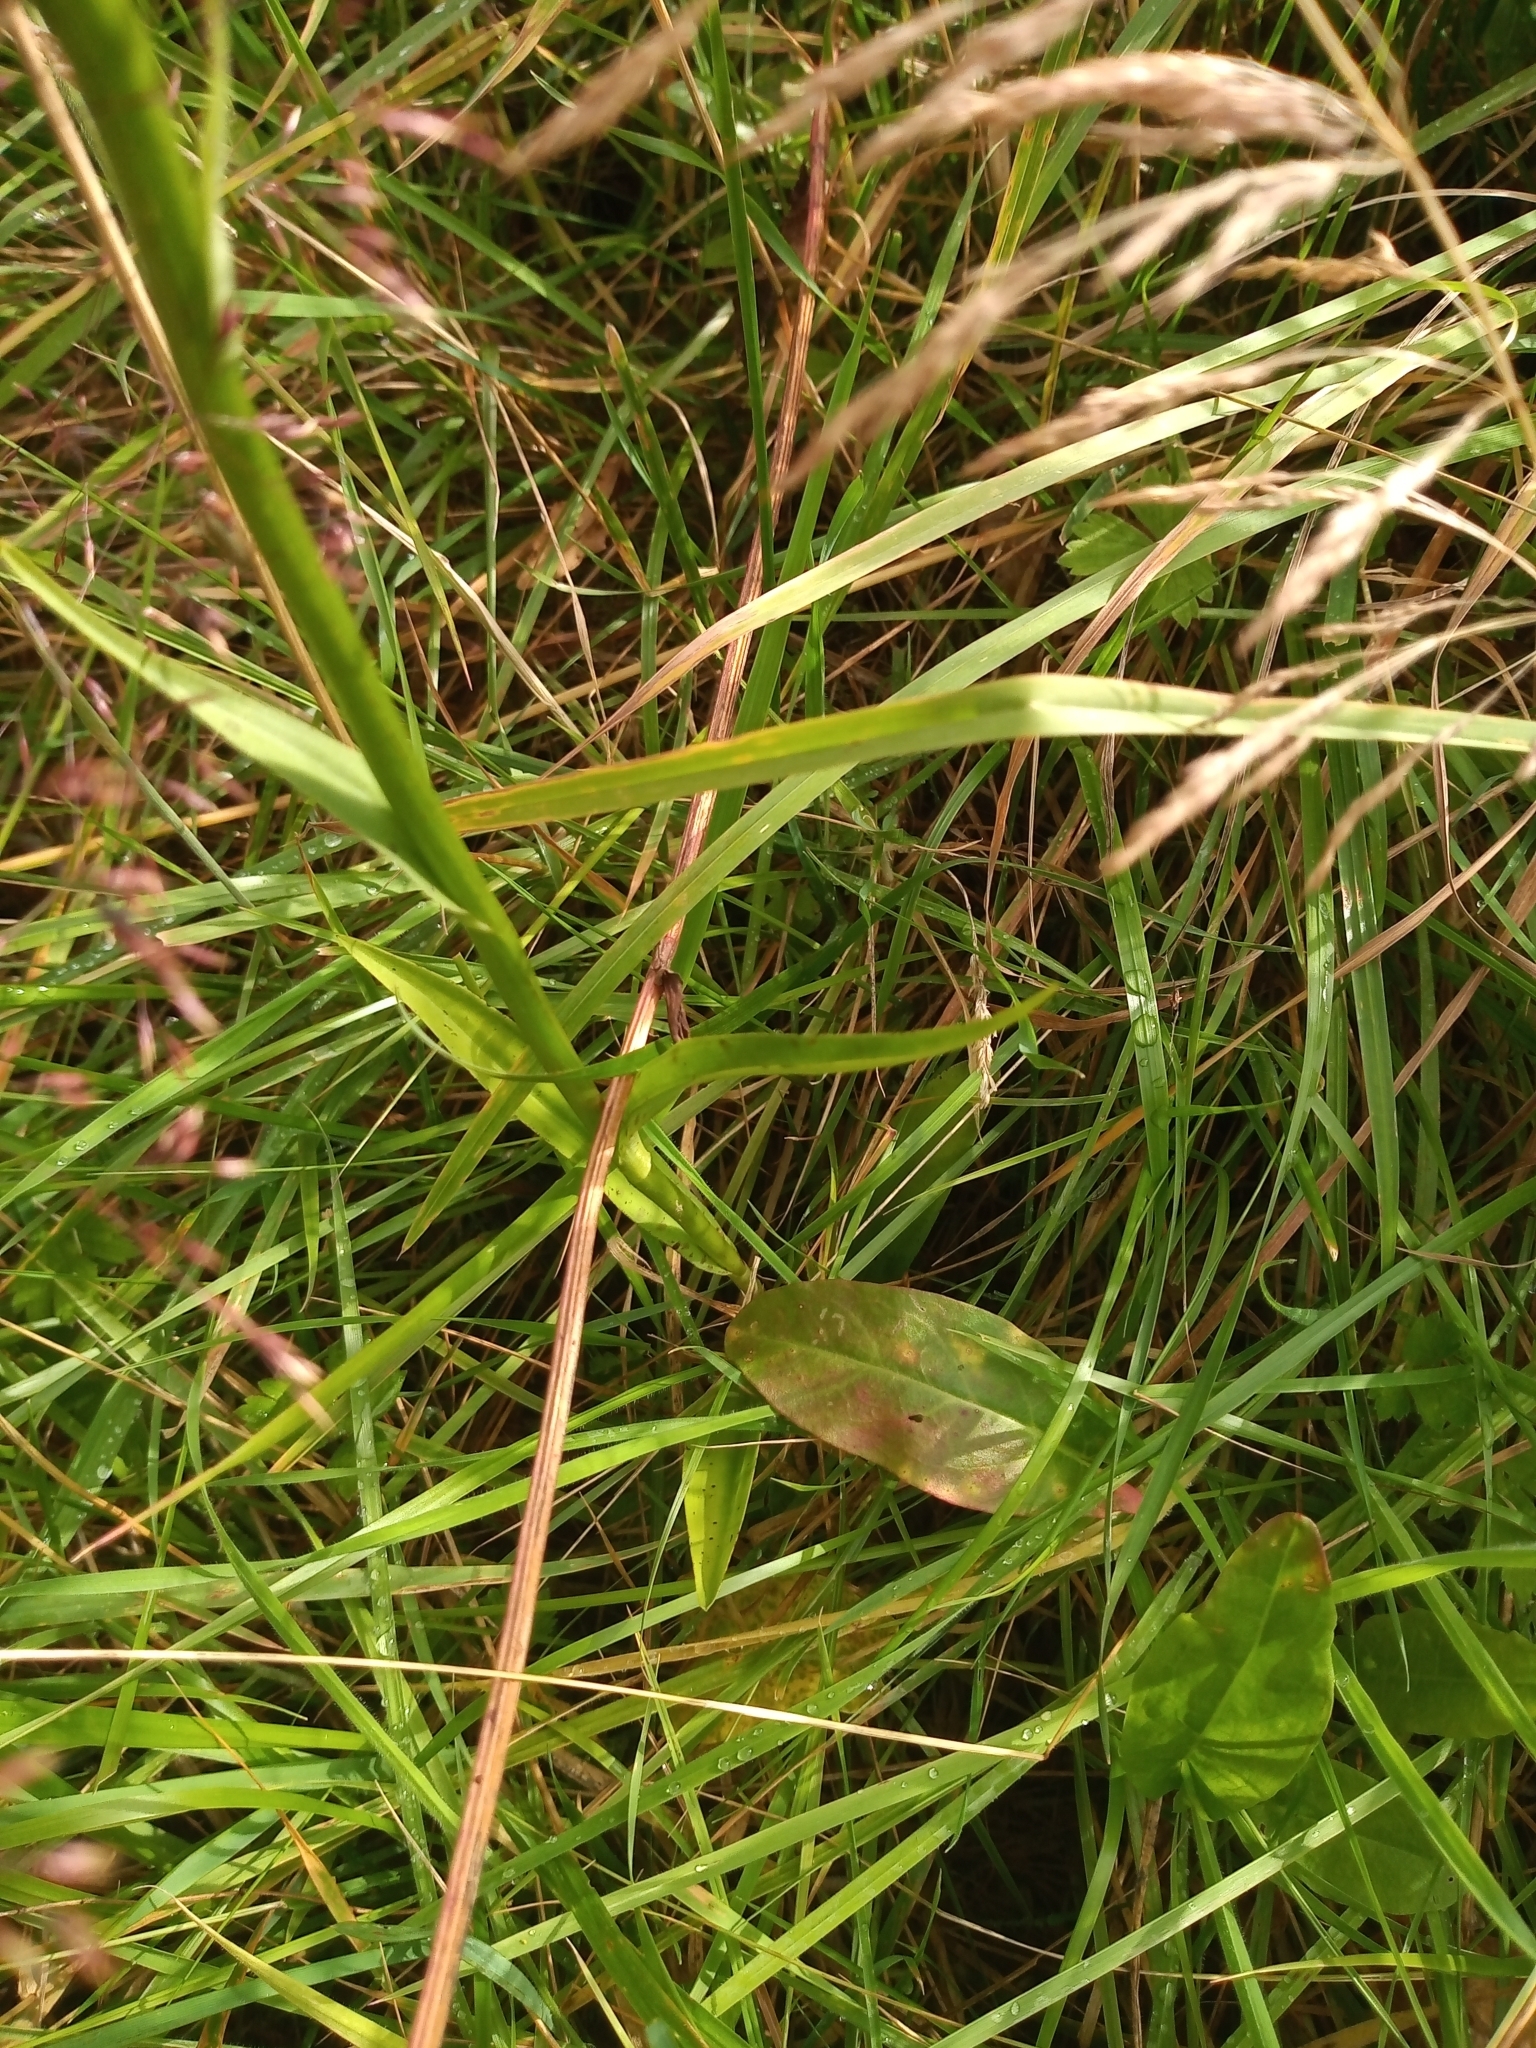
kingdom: Plantae
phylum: Tracheophyta
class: Liliopsida
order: Asparagales
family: Orchidaceae
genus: Dactylorhiza
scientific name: Dactylorhiza maculata
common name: Heath spotted-orchid
